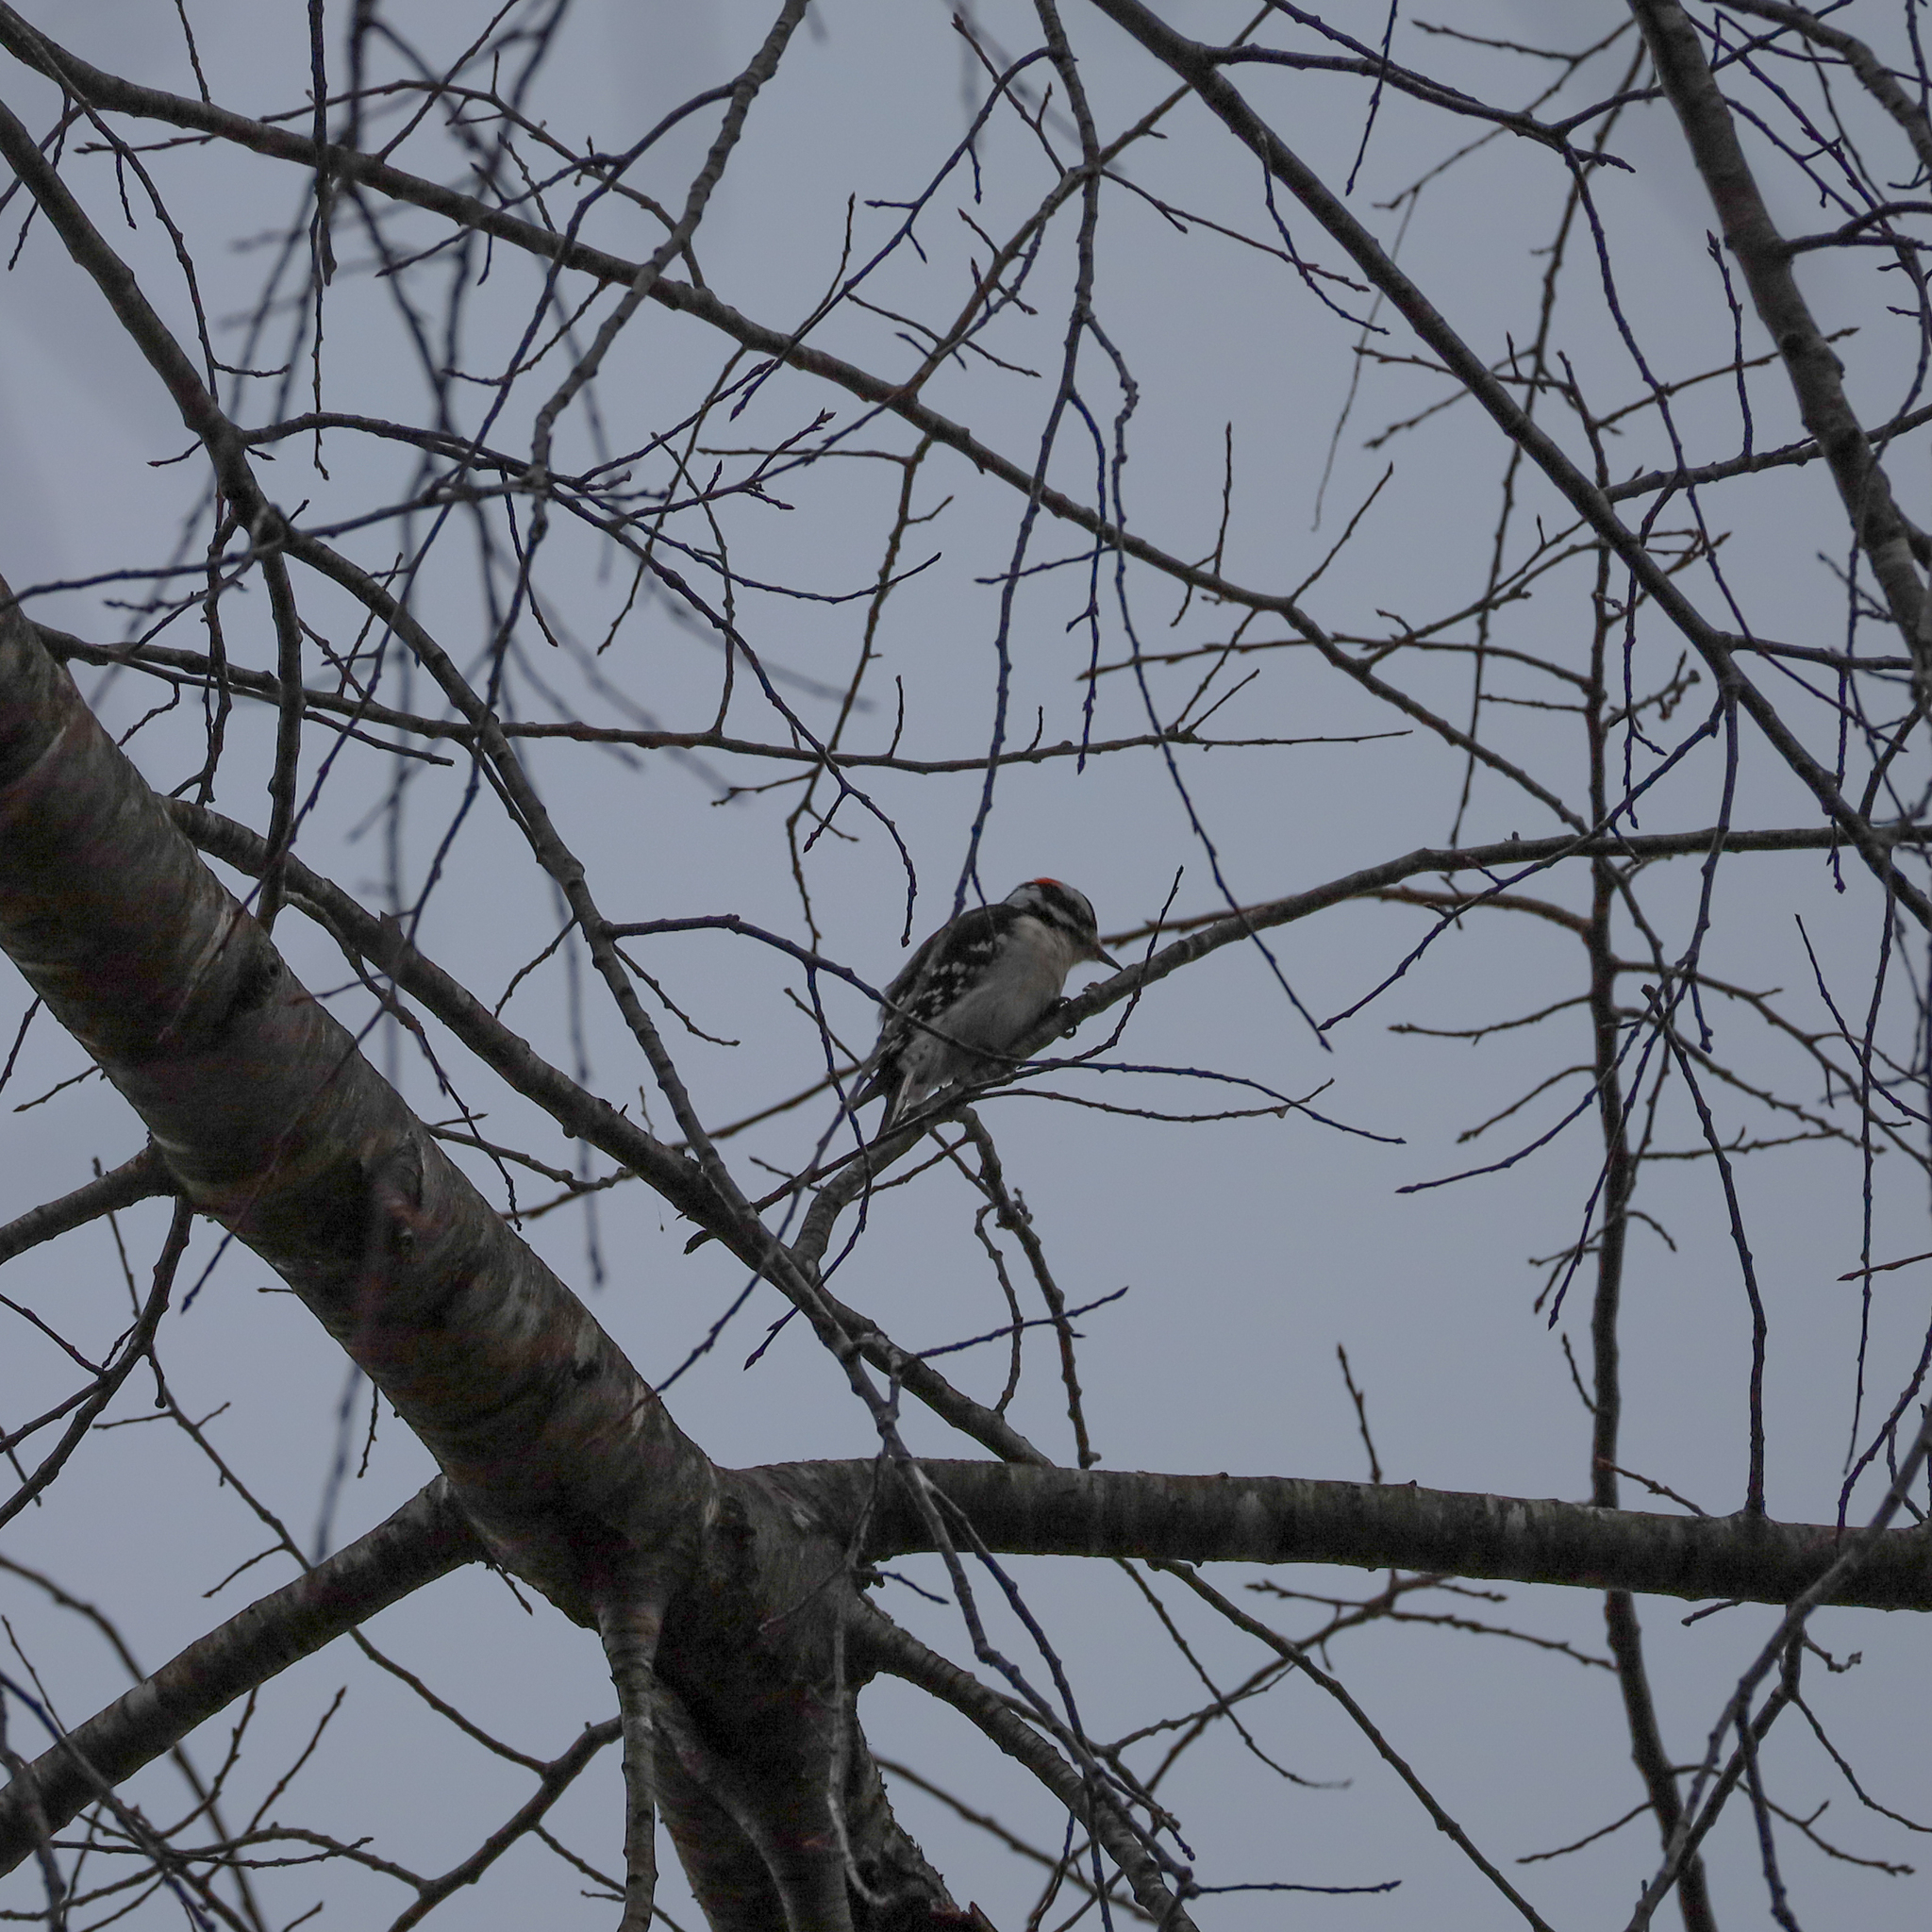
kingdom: Animalia
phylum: Chordata
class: Aves
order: Piciformes
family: Picidae
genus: Dryobates
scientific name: Dryobates pubescens
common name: Downy woodpecker
